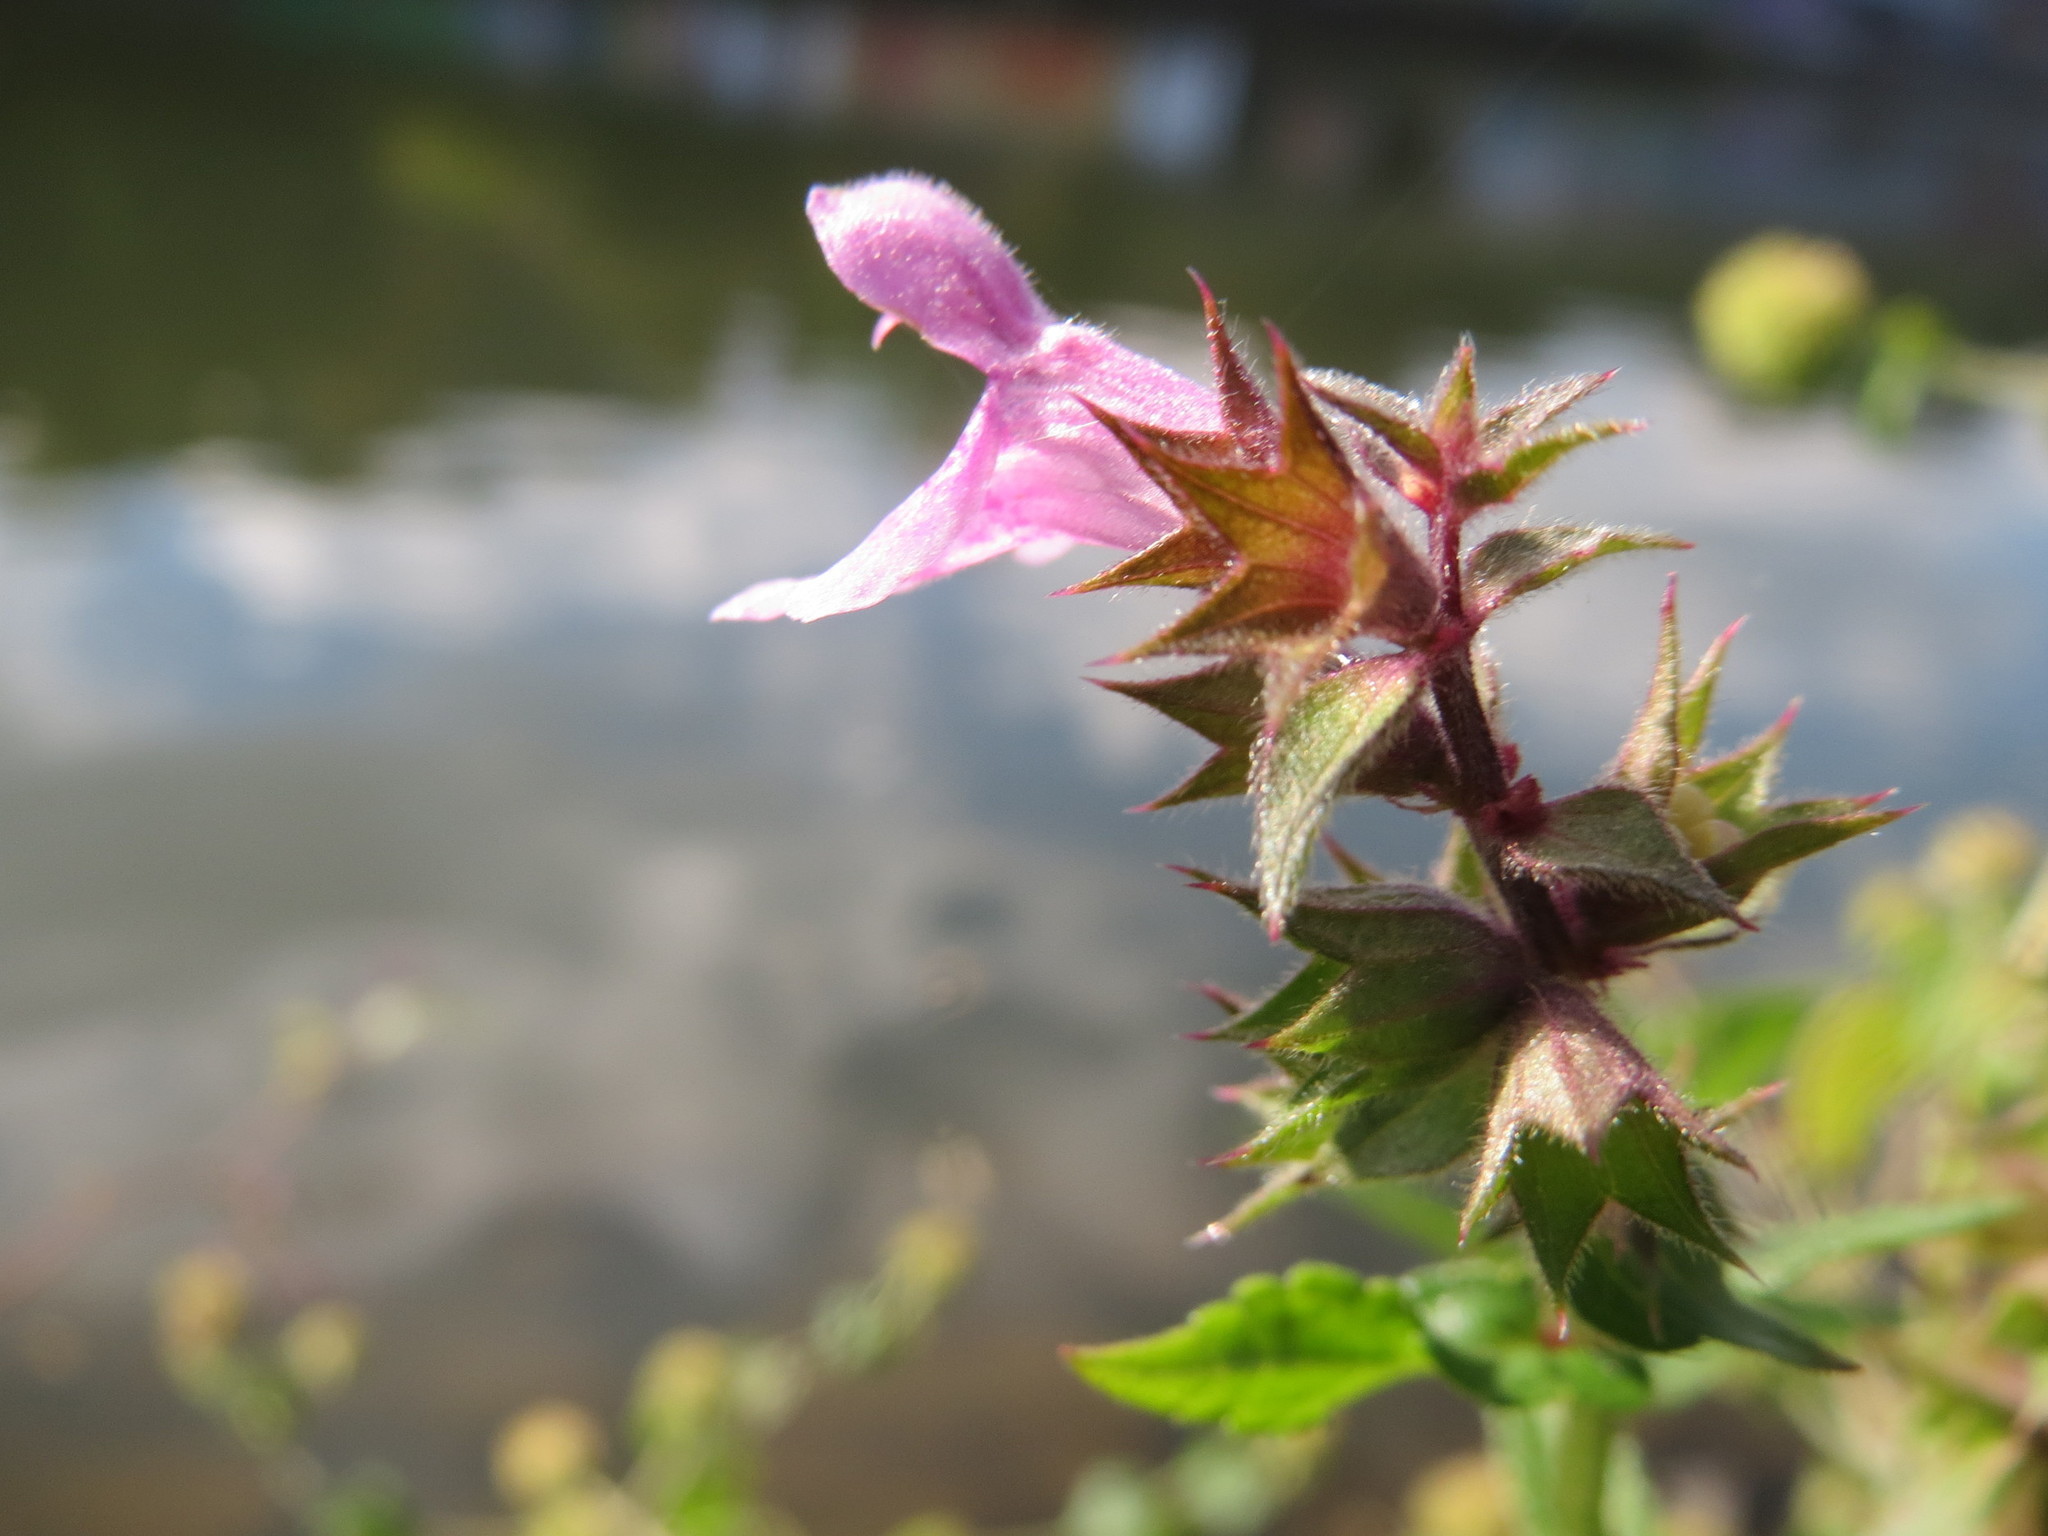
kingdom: Plantae
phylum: Tracheophyta
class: Magnoliopsida
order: Lamiales
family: Lamiaceae
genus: Stachys
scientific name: Stachys palustris
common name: Marsh woundwort
